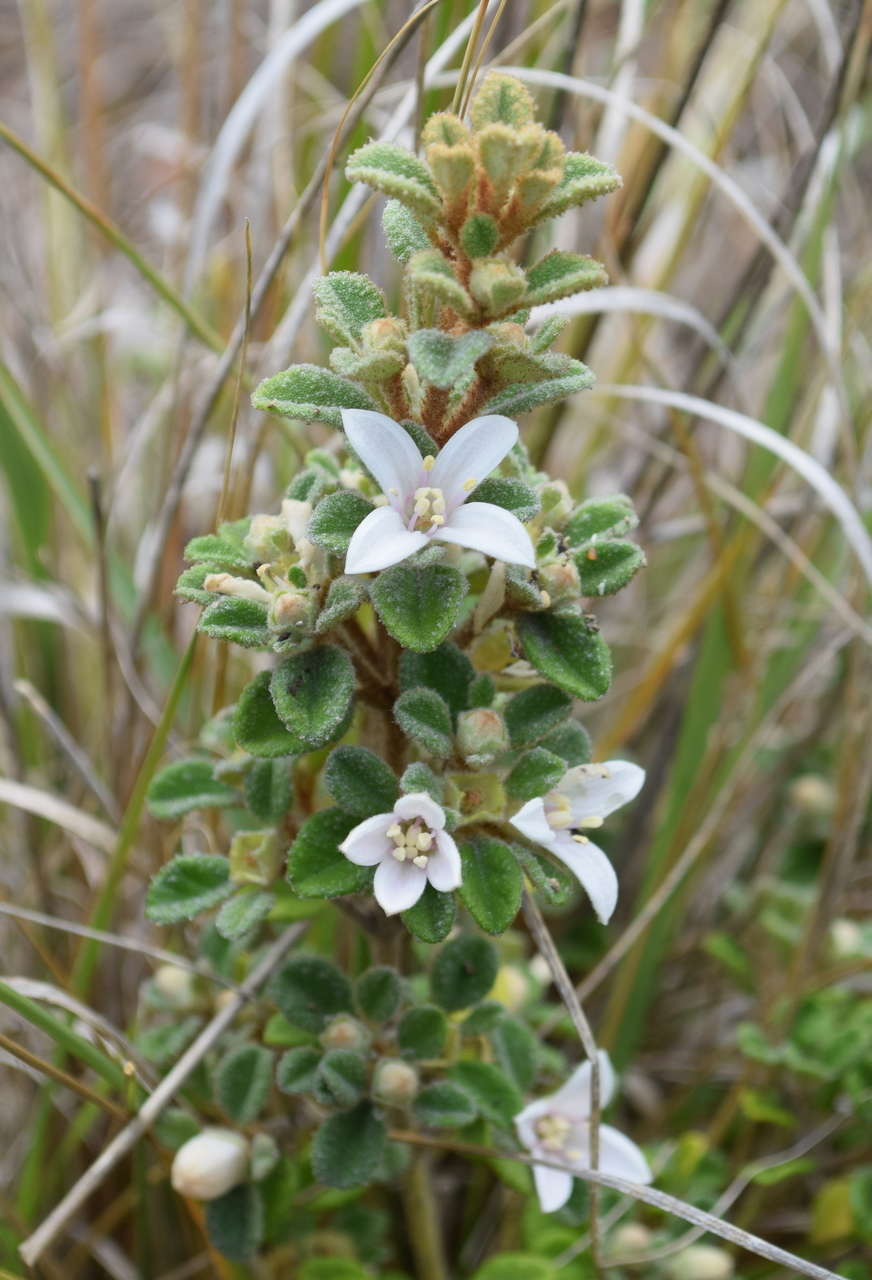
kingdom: Plantae
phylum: Tracheophyta
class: Magnoliopsida
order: Sapindales
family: Rutaceae
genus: Correa
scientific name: Correa alba
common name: White correa
